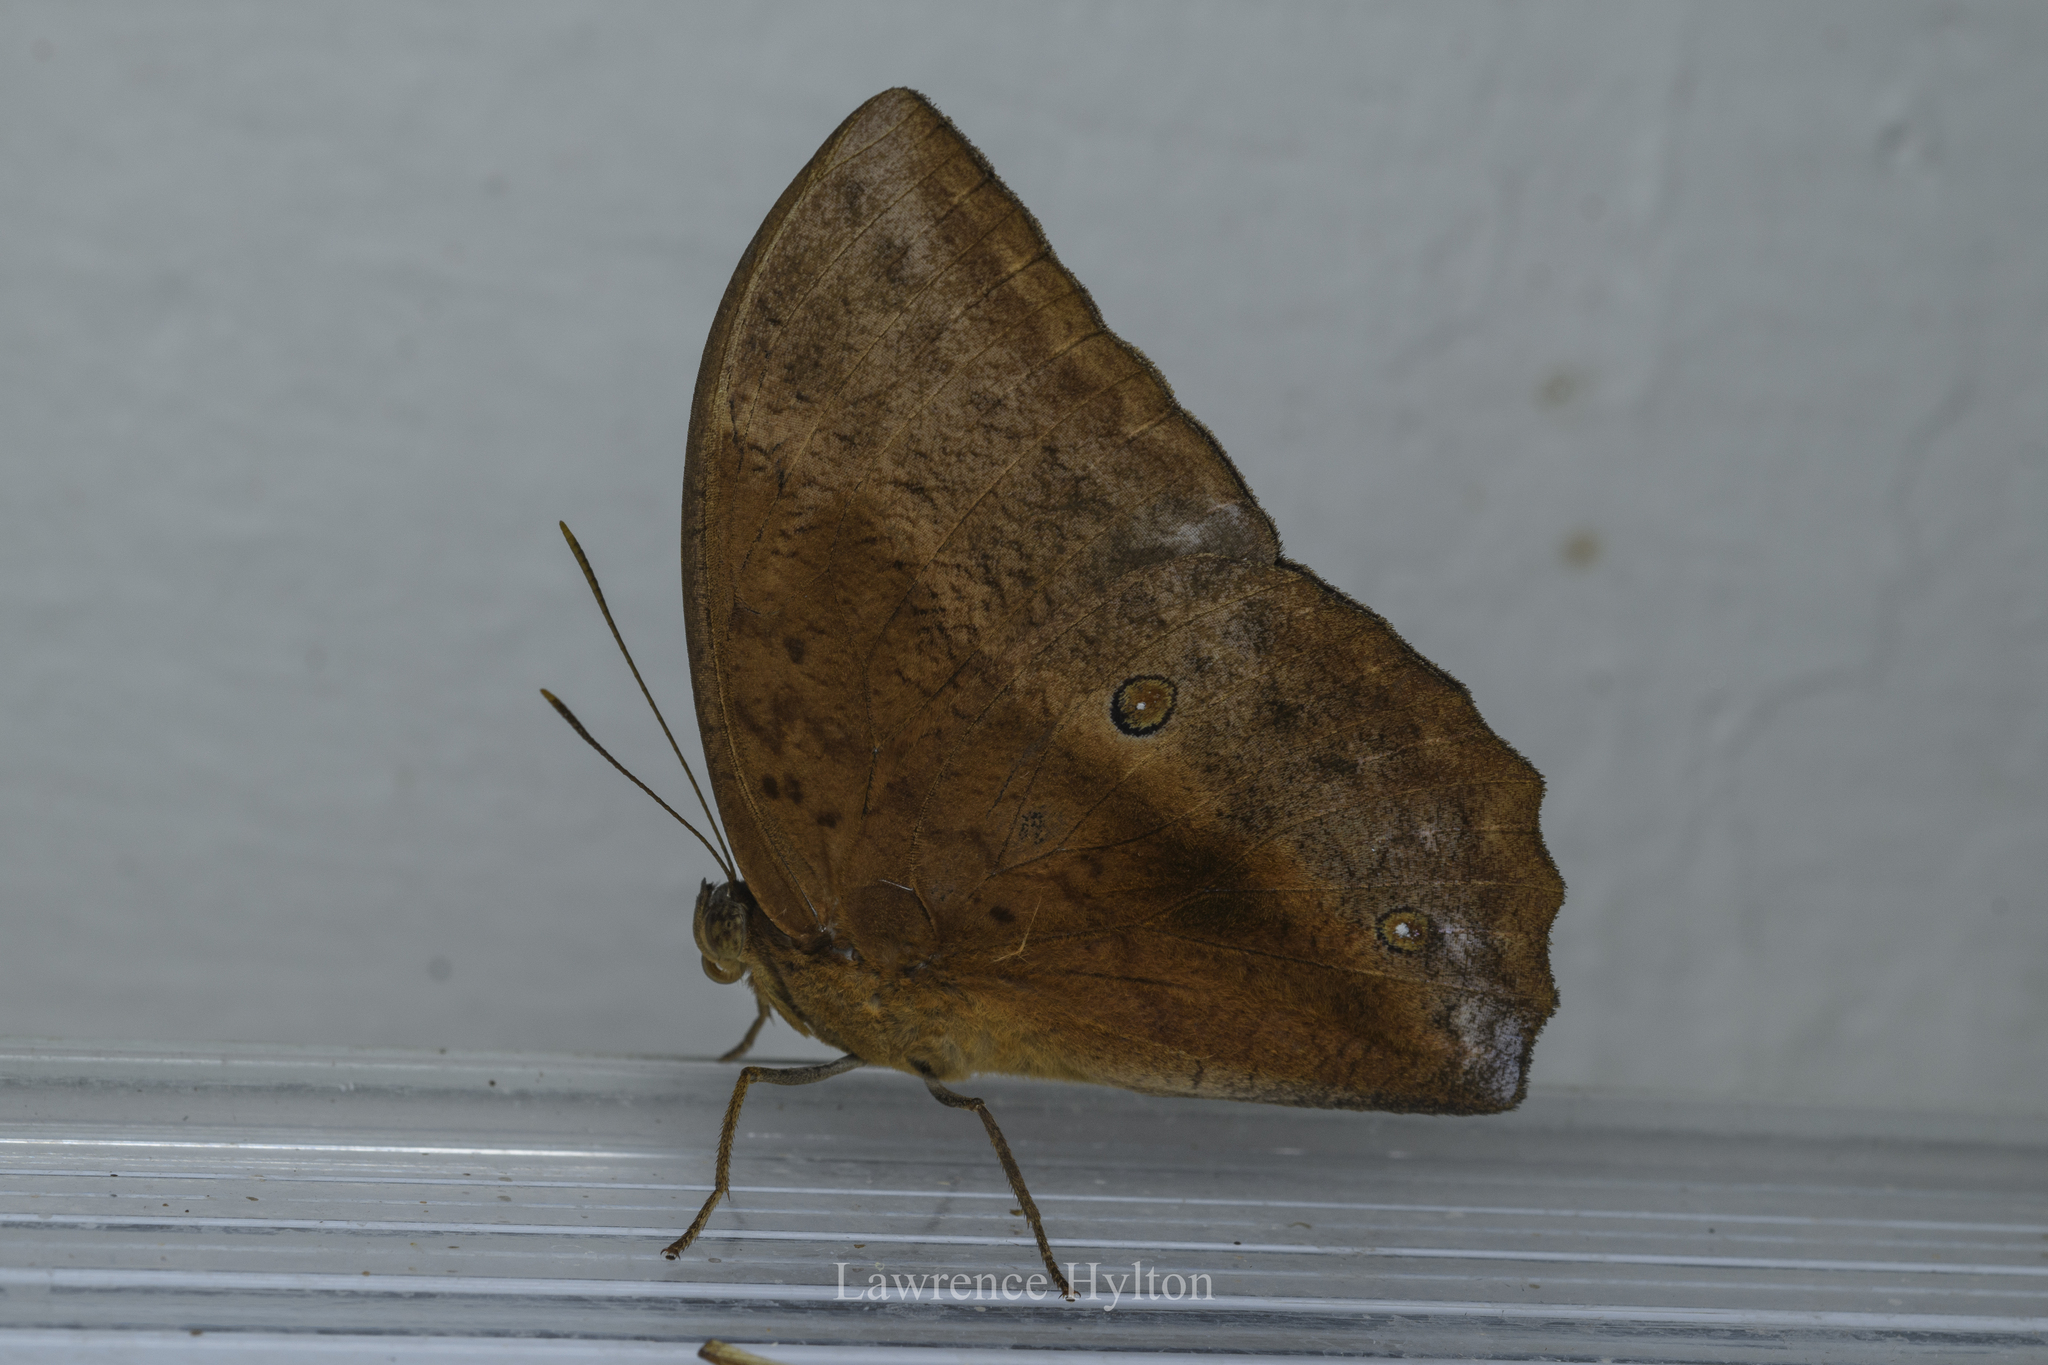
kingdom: Animalia
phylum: Arthropoda
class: Insecta
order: Lepidoptera
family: Nymphalidae
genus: Discophora
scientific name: Discophora sondaica
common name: Common duffer
